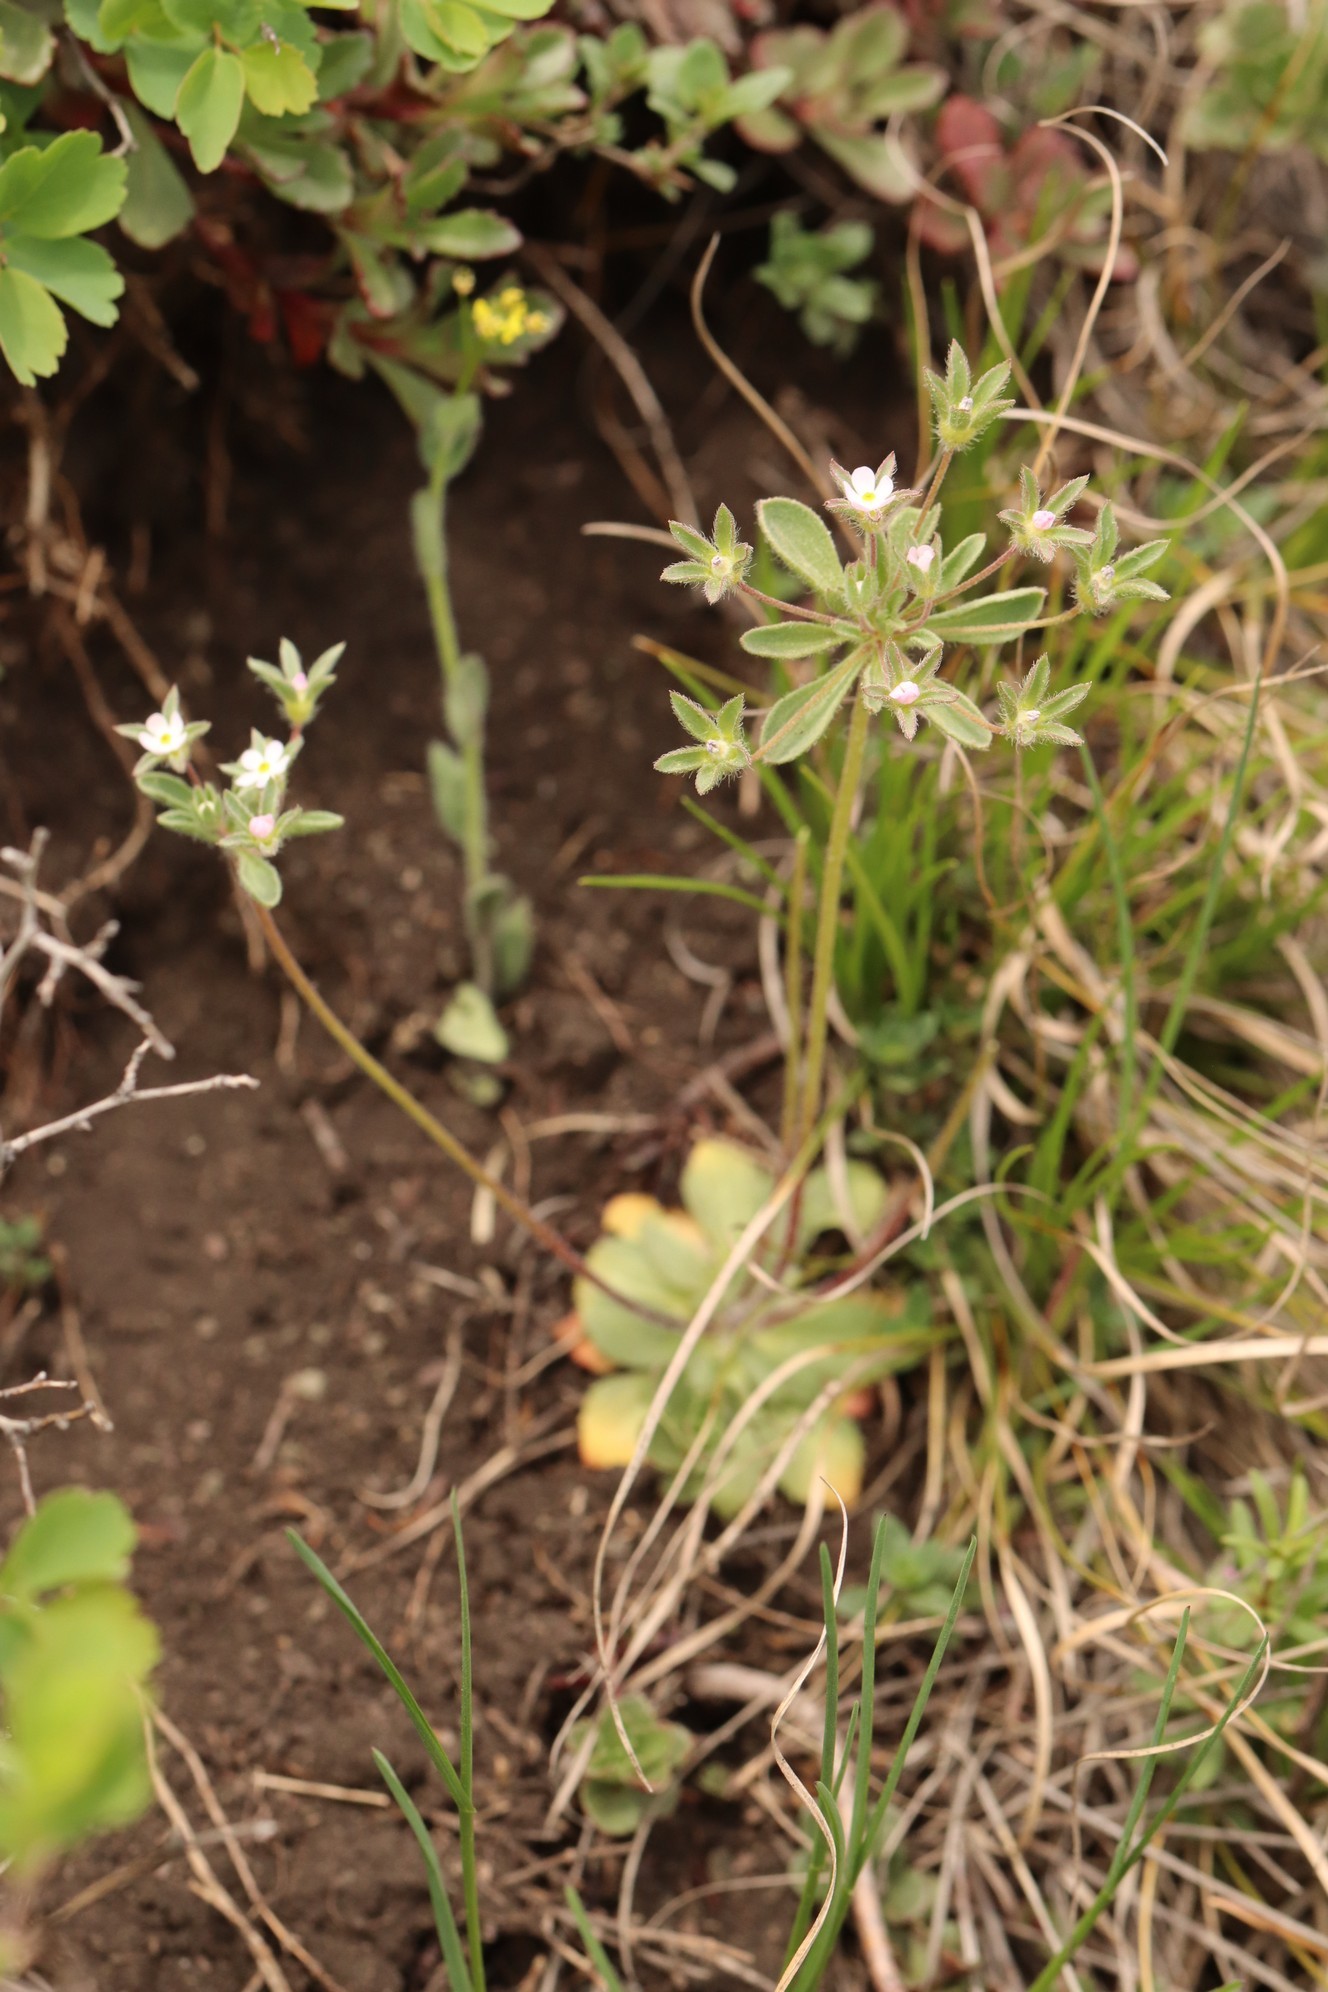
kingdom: Plantae
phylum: Tracheophyta
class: Magnoliopsida
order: Ericales
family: Primulaceae
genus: Androsace
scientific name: Androsace maxima
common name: Annual androsace
